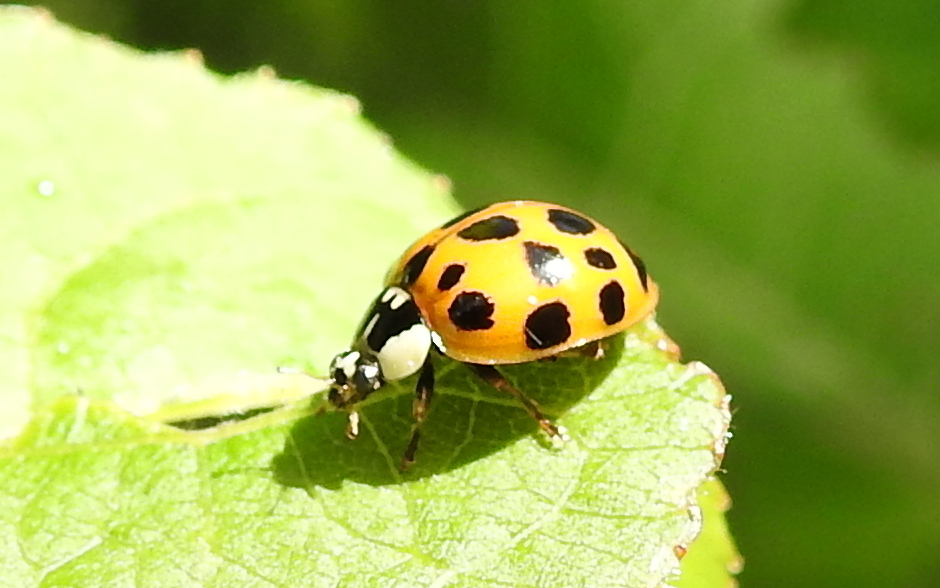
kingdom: Animalia
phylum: Arthropoda
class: Insecta
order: Coleoptera
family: Coccinellidae
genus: Harmonia
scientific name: Harmonia axyridis
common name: Harlequin ladybird
